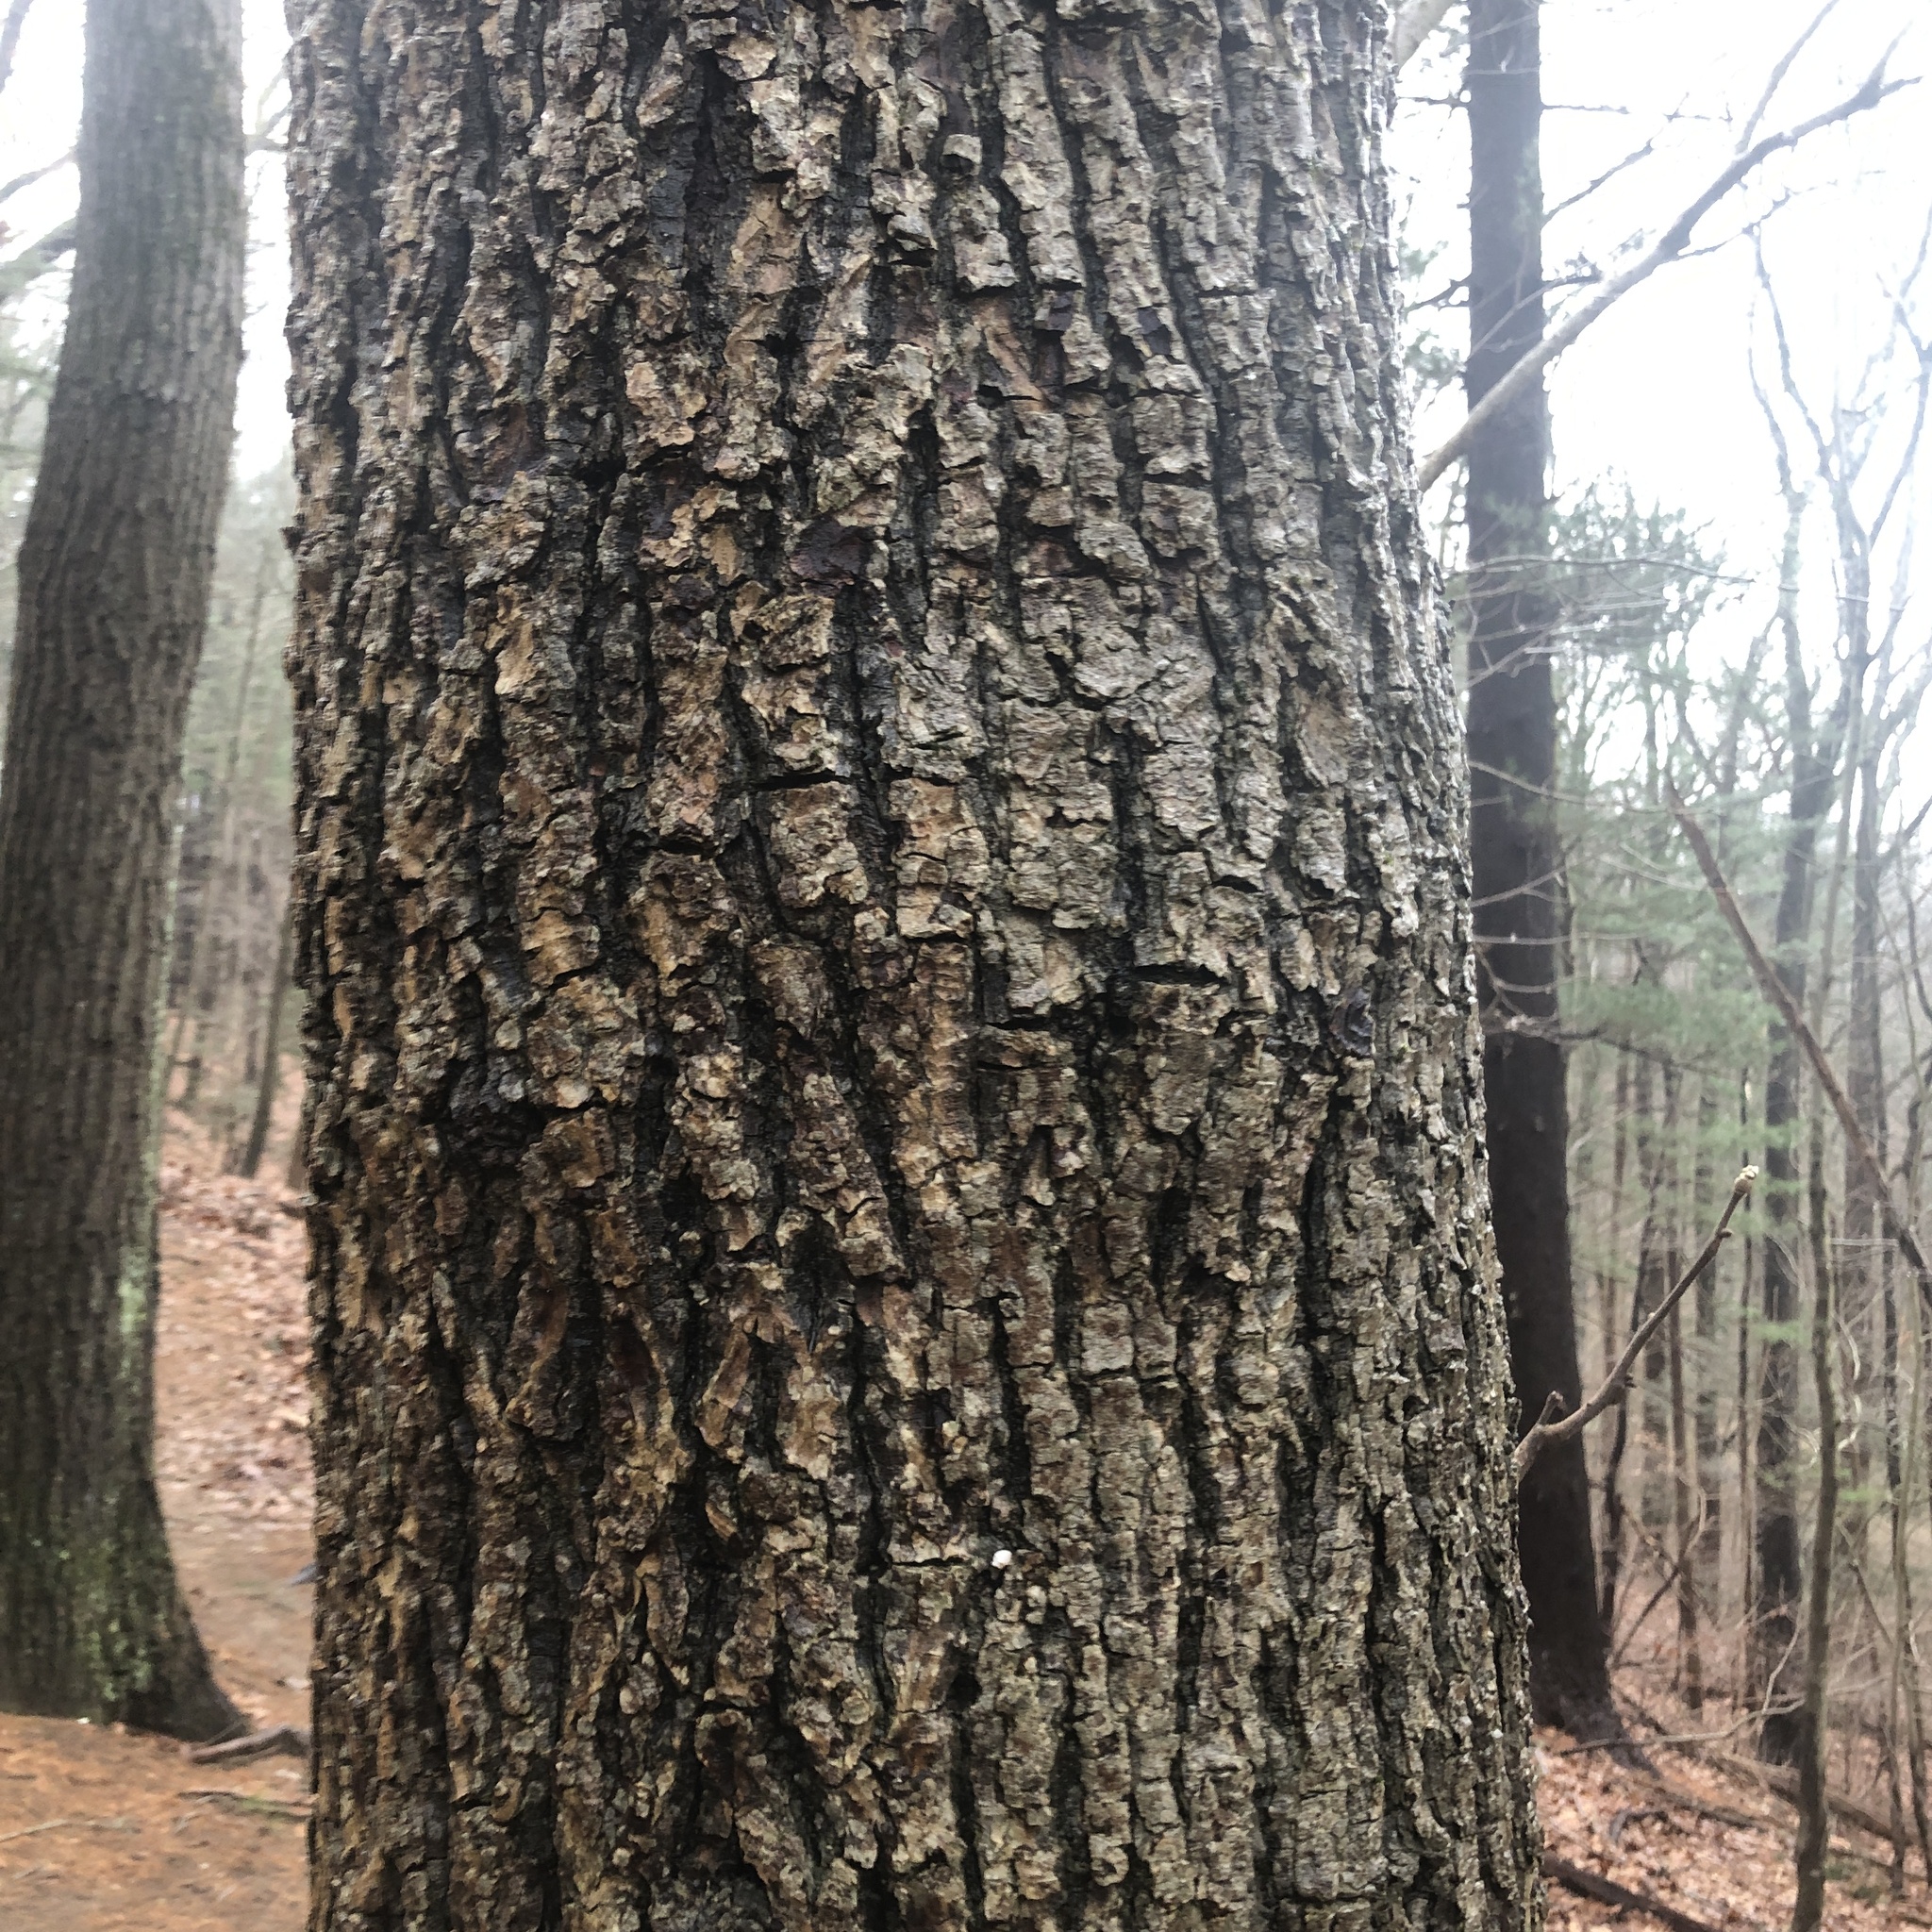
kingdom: Plantae
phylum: Tracheophyta
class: Magnoliopsida
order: Fagales
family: Juglandaceae
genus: Carya
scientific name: Carya alba
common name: Mockernut hickory
